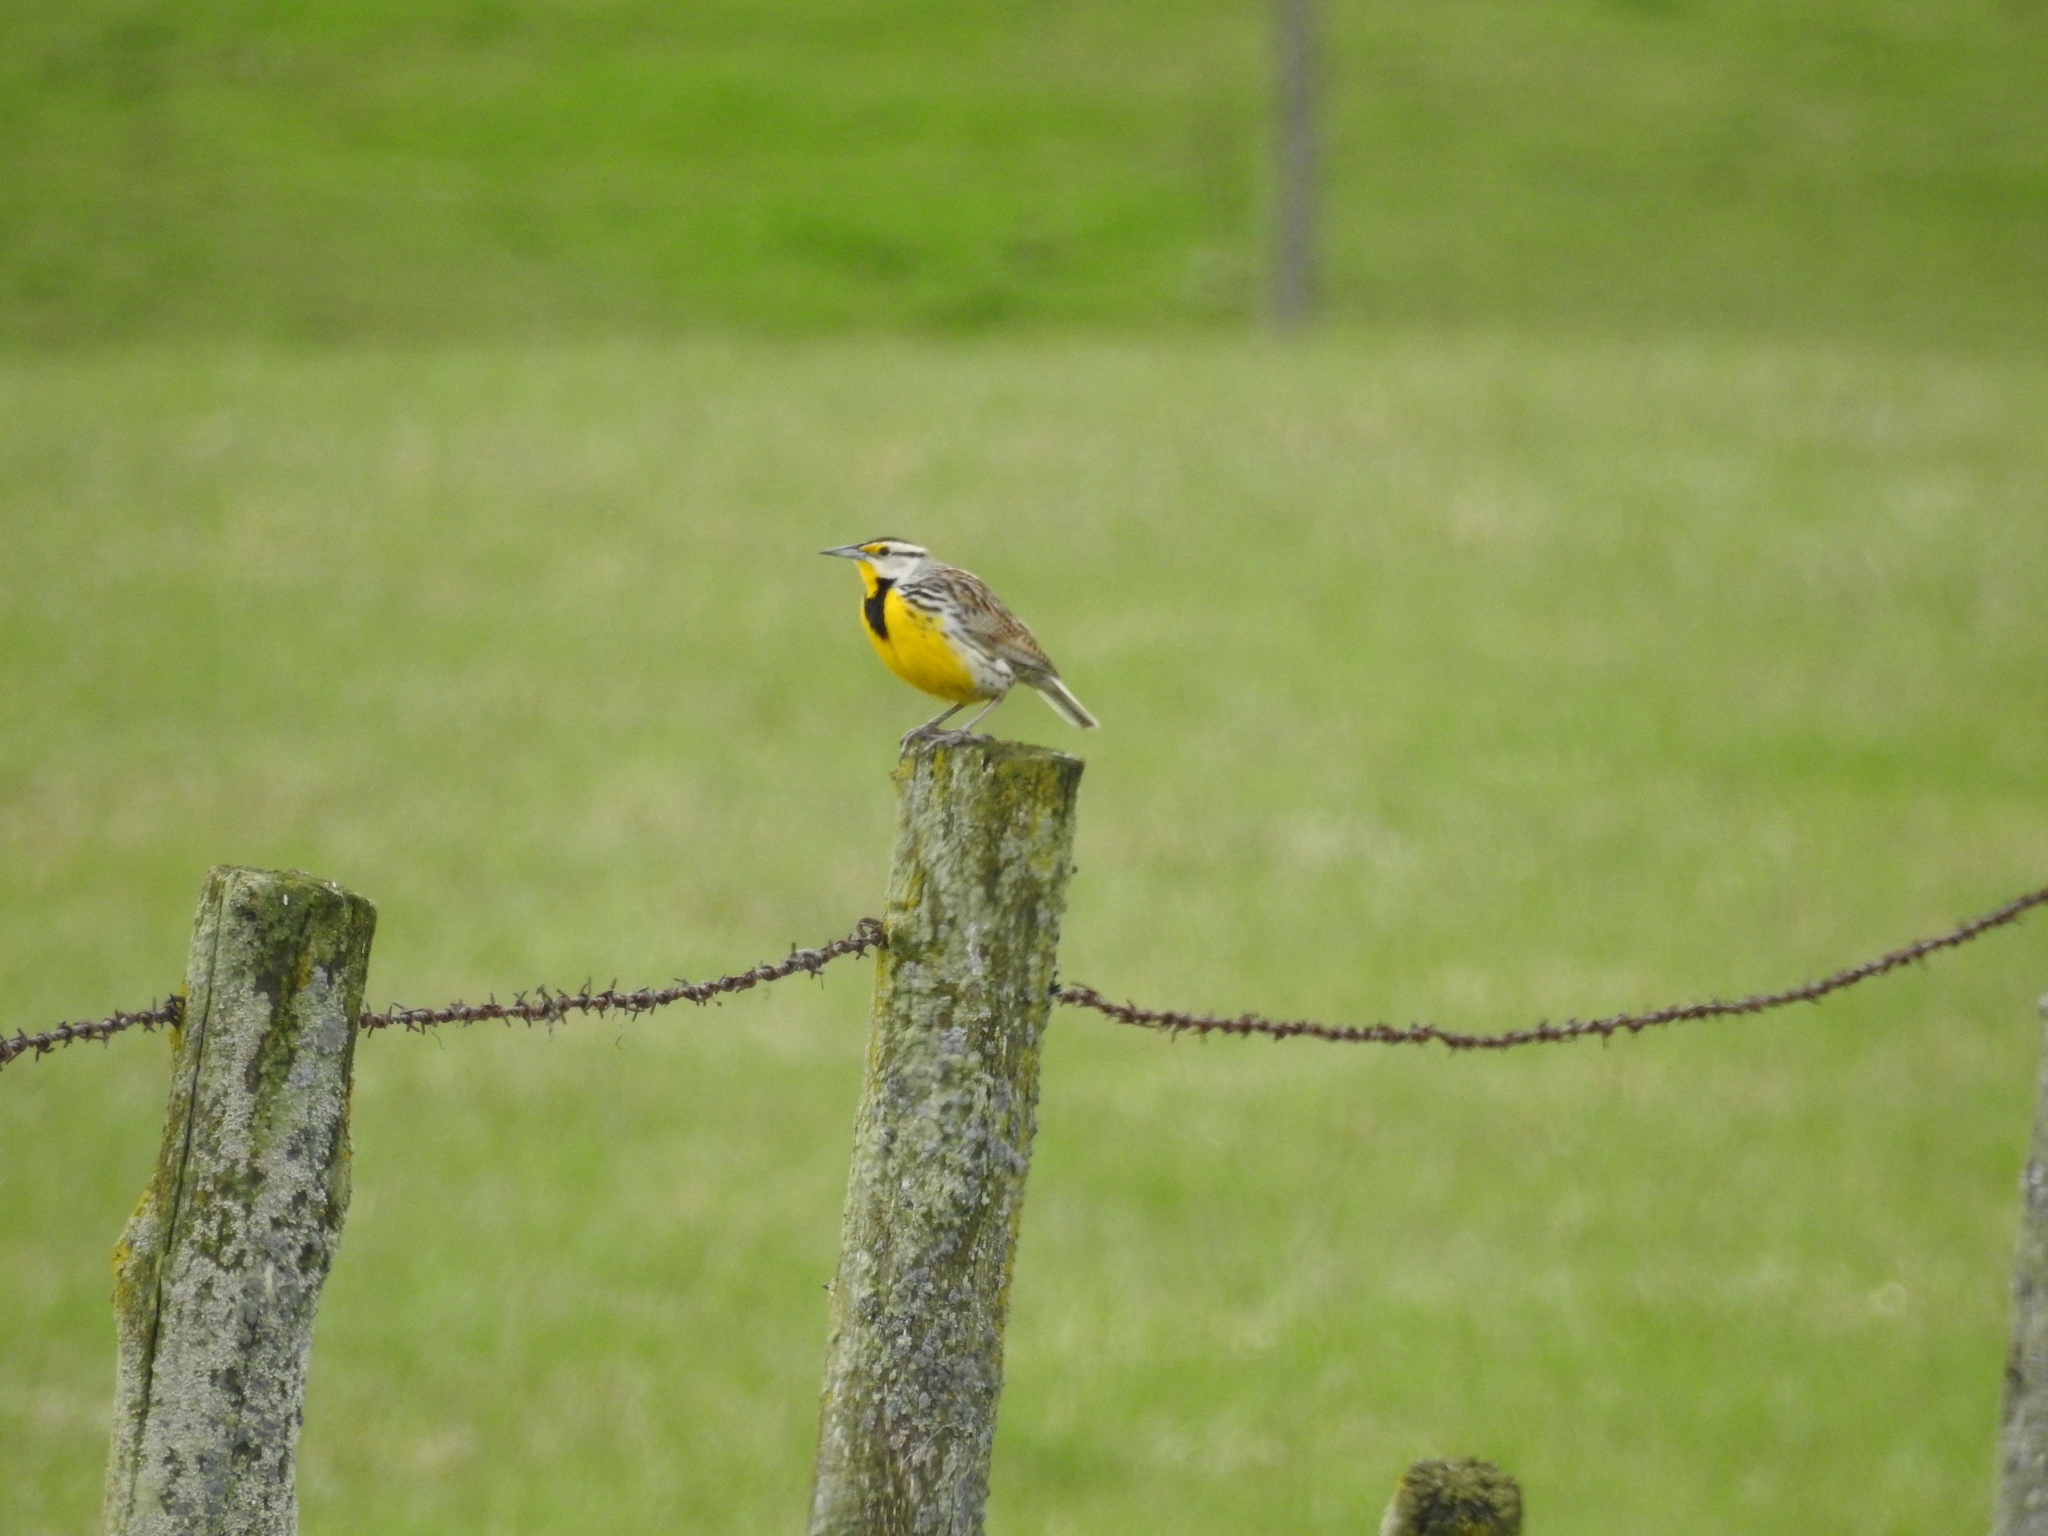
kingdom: Animalia
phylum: Chordata
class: Aves
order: Passeriformes
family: Icteridae
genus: Sturnella
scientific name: Sturnella magna
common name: Eastern meadowlark
